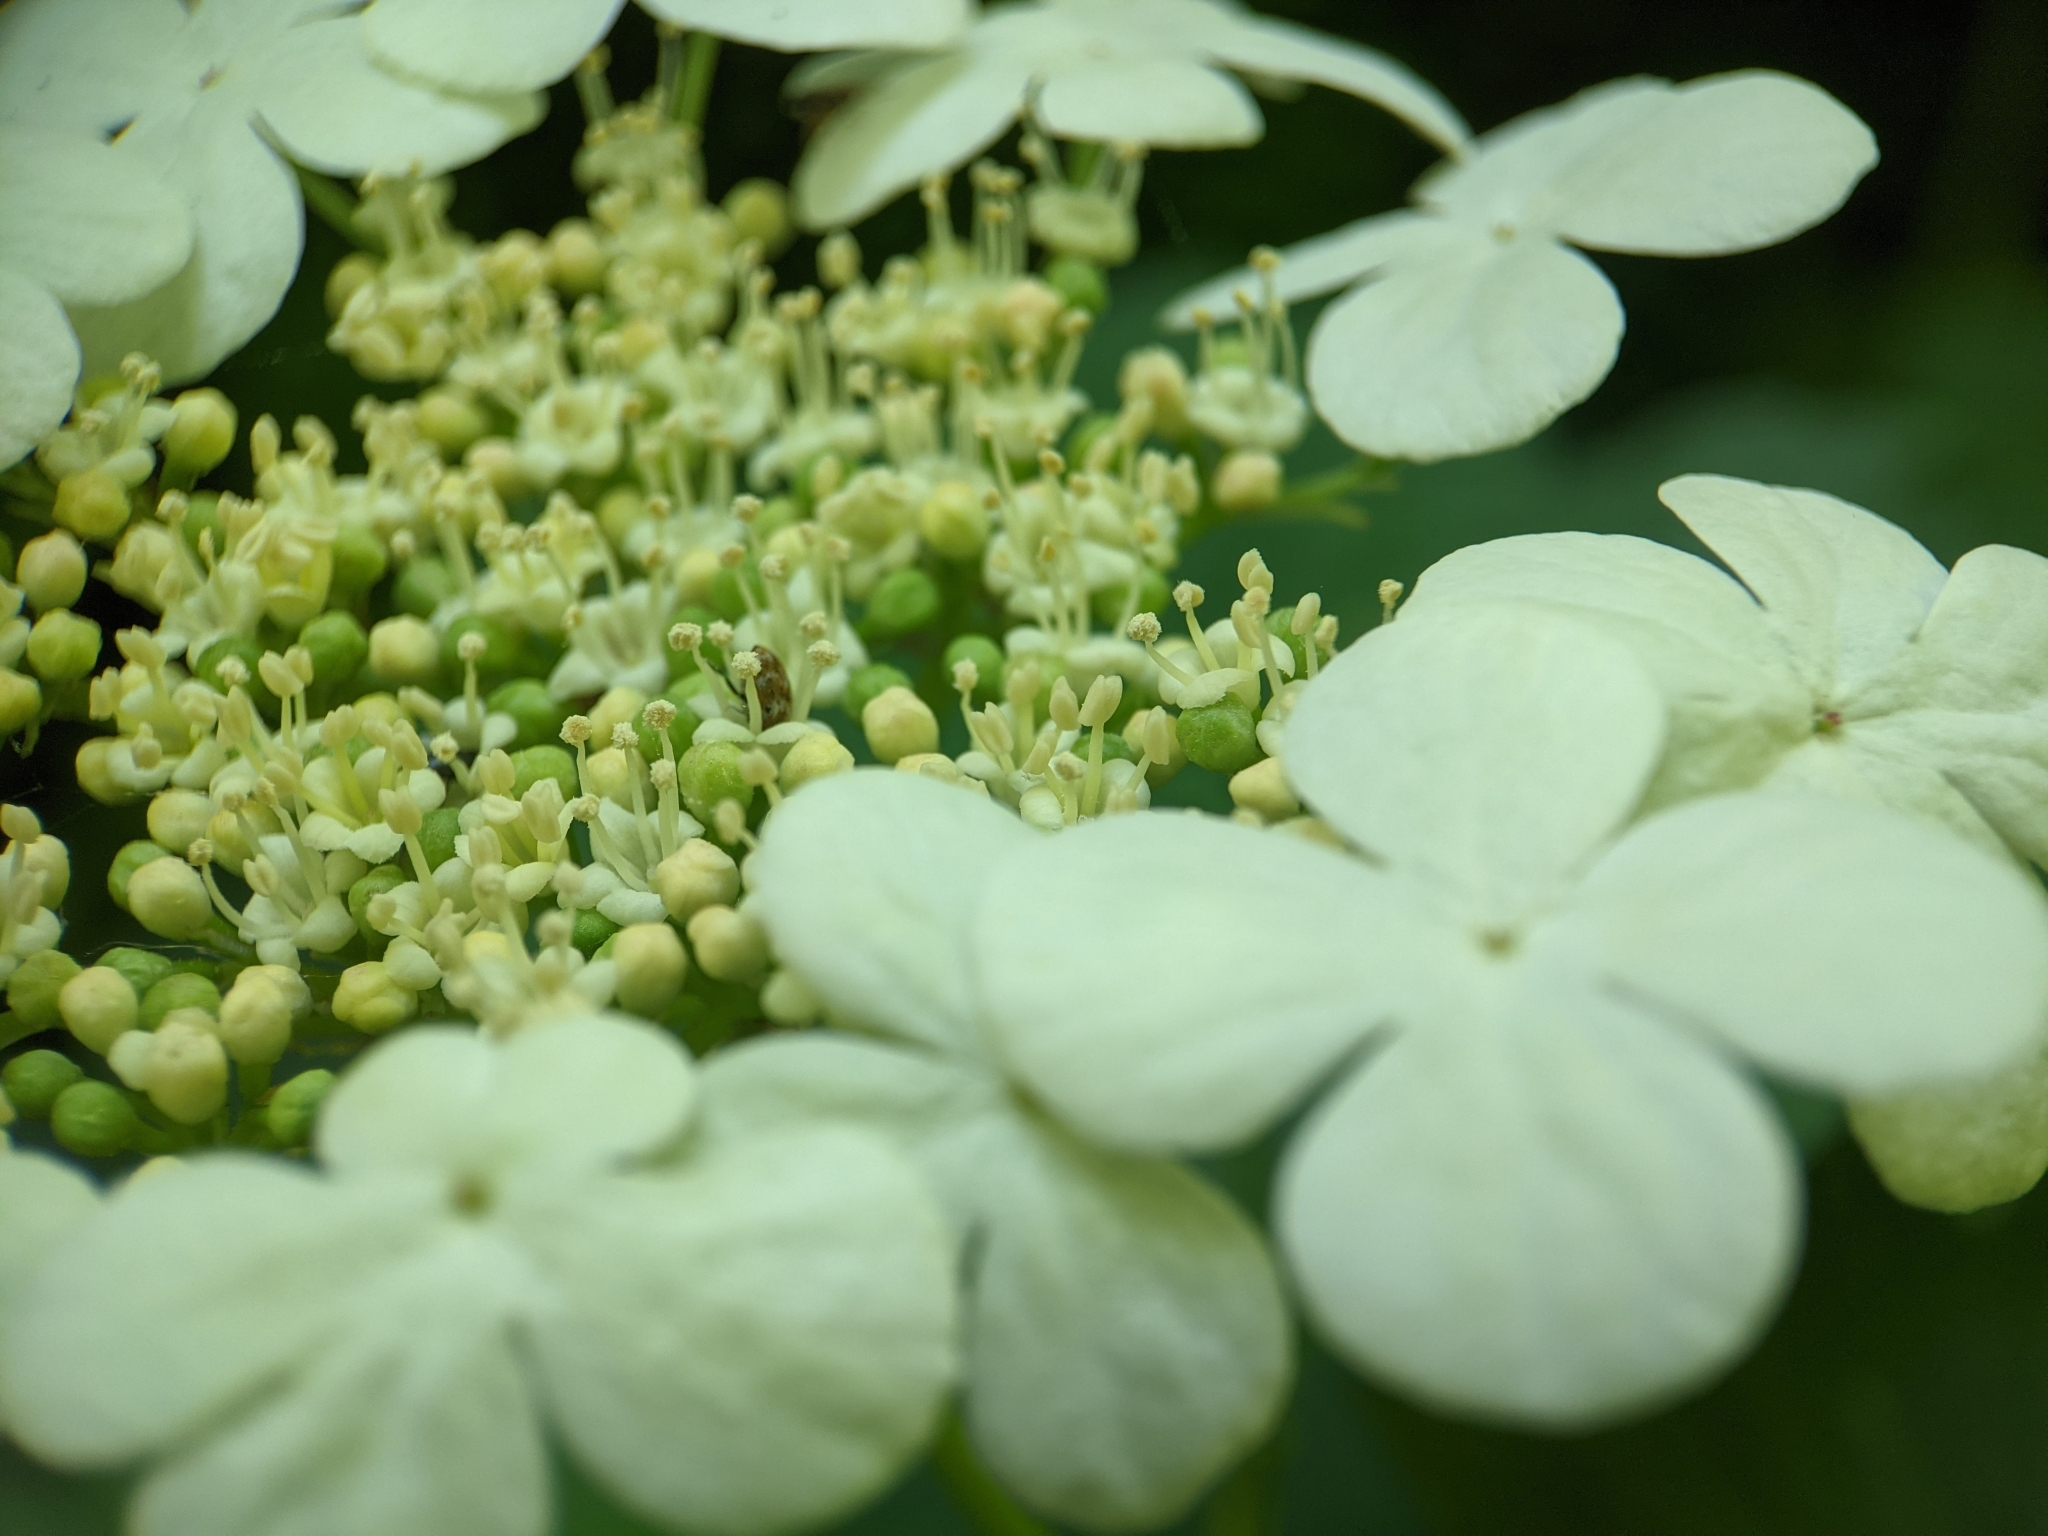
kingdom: Plantae
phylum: Tracheophyta
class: Magnoliopsida
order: Dipsacales
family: Viburnaceae
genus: Viburnum
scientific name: Viburnum opulus
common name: Guelder-rose
